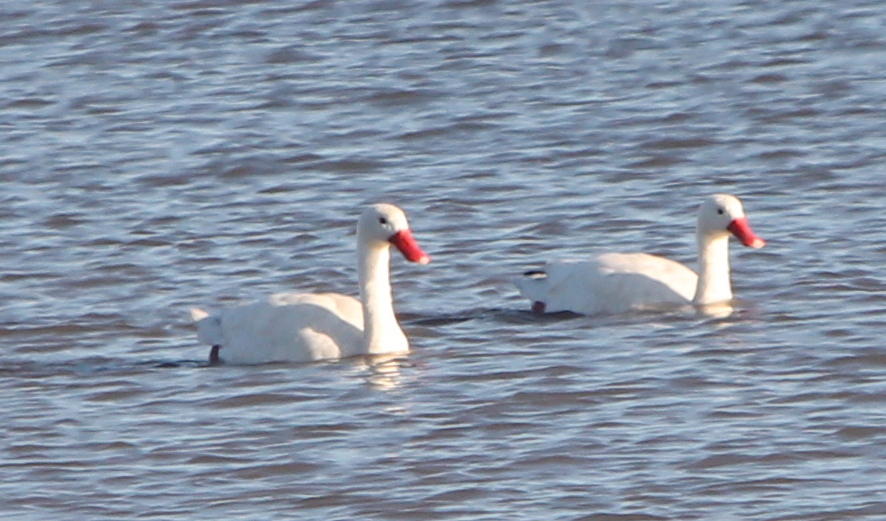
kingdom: Animalia
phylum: Chordata
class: Aves
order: Anseriformes
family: Anatidae
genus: Coscoroba
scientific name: Coscoroba coscoroba
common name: Coscoroba swan
